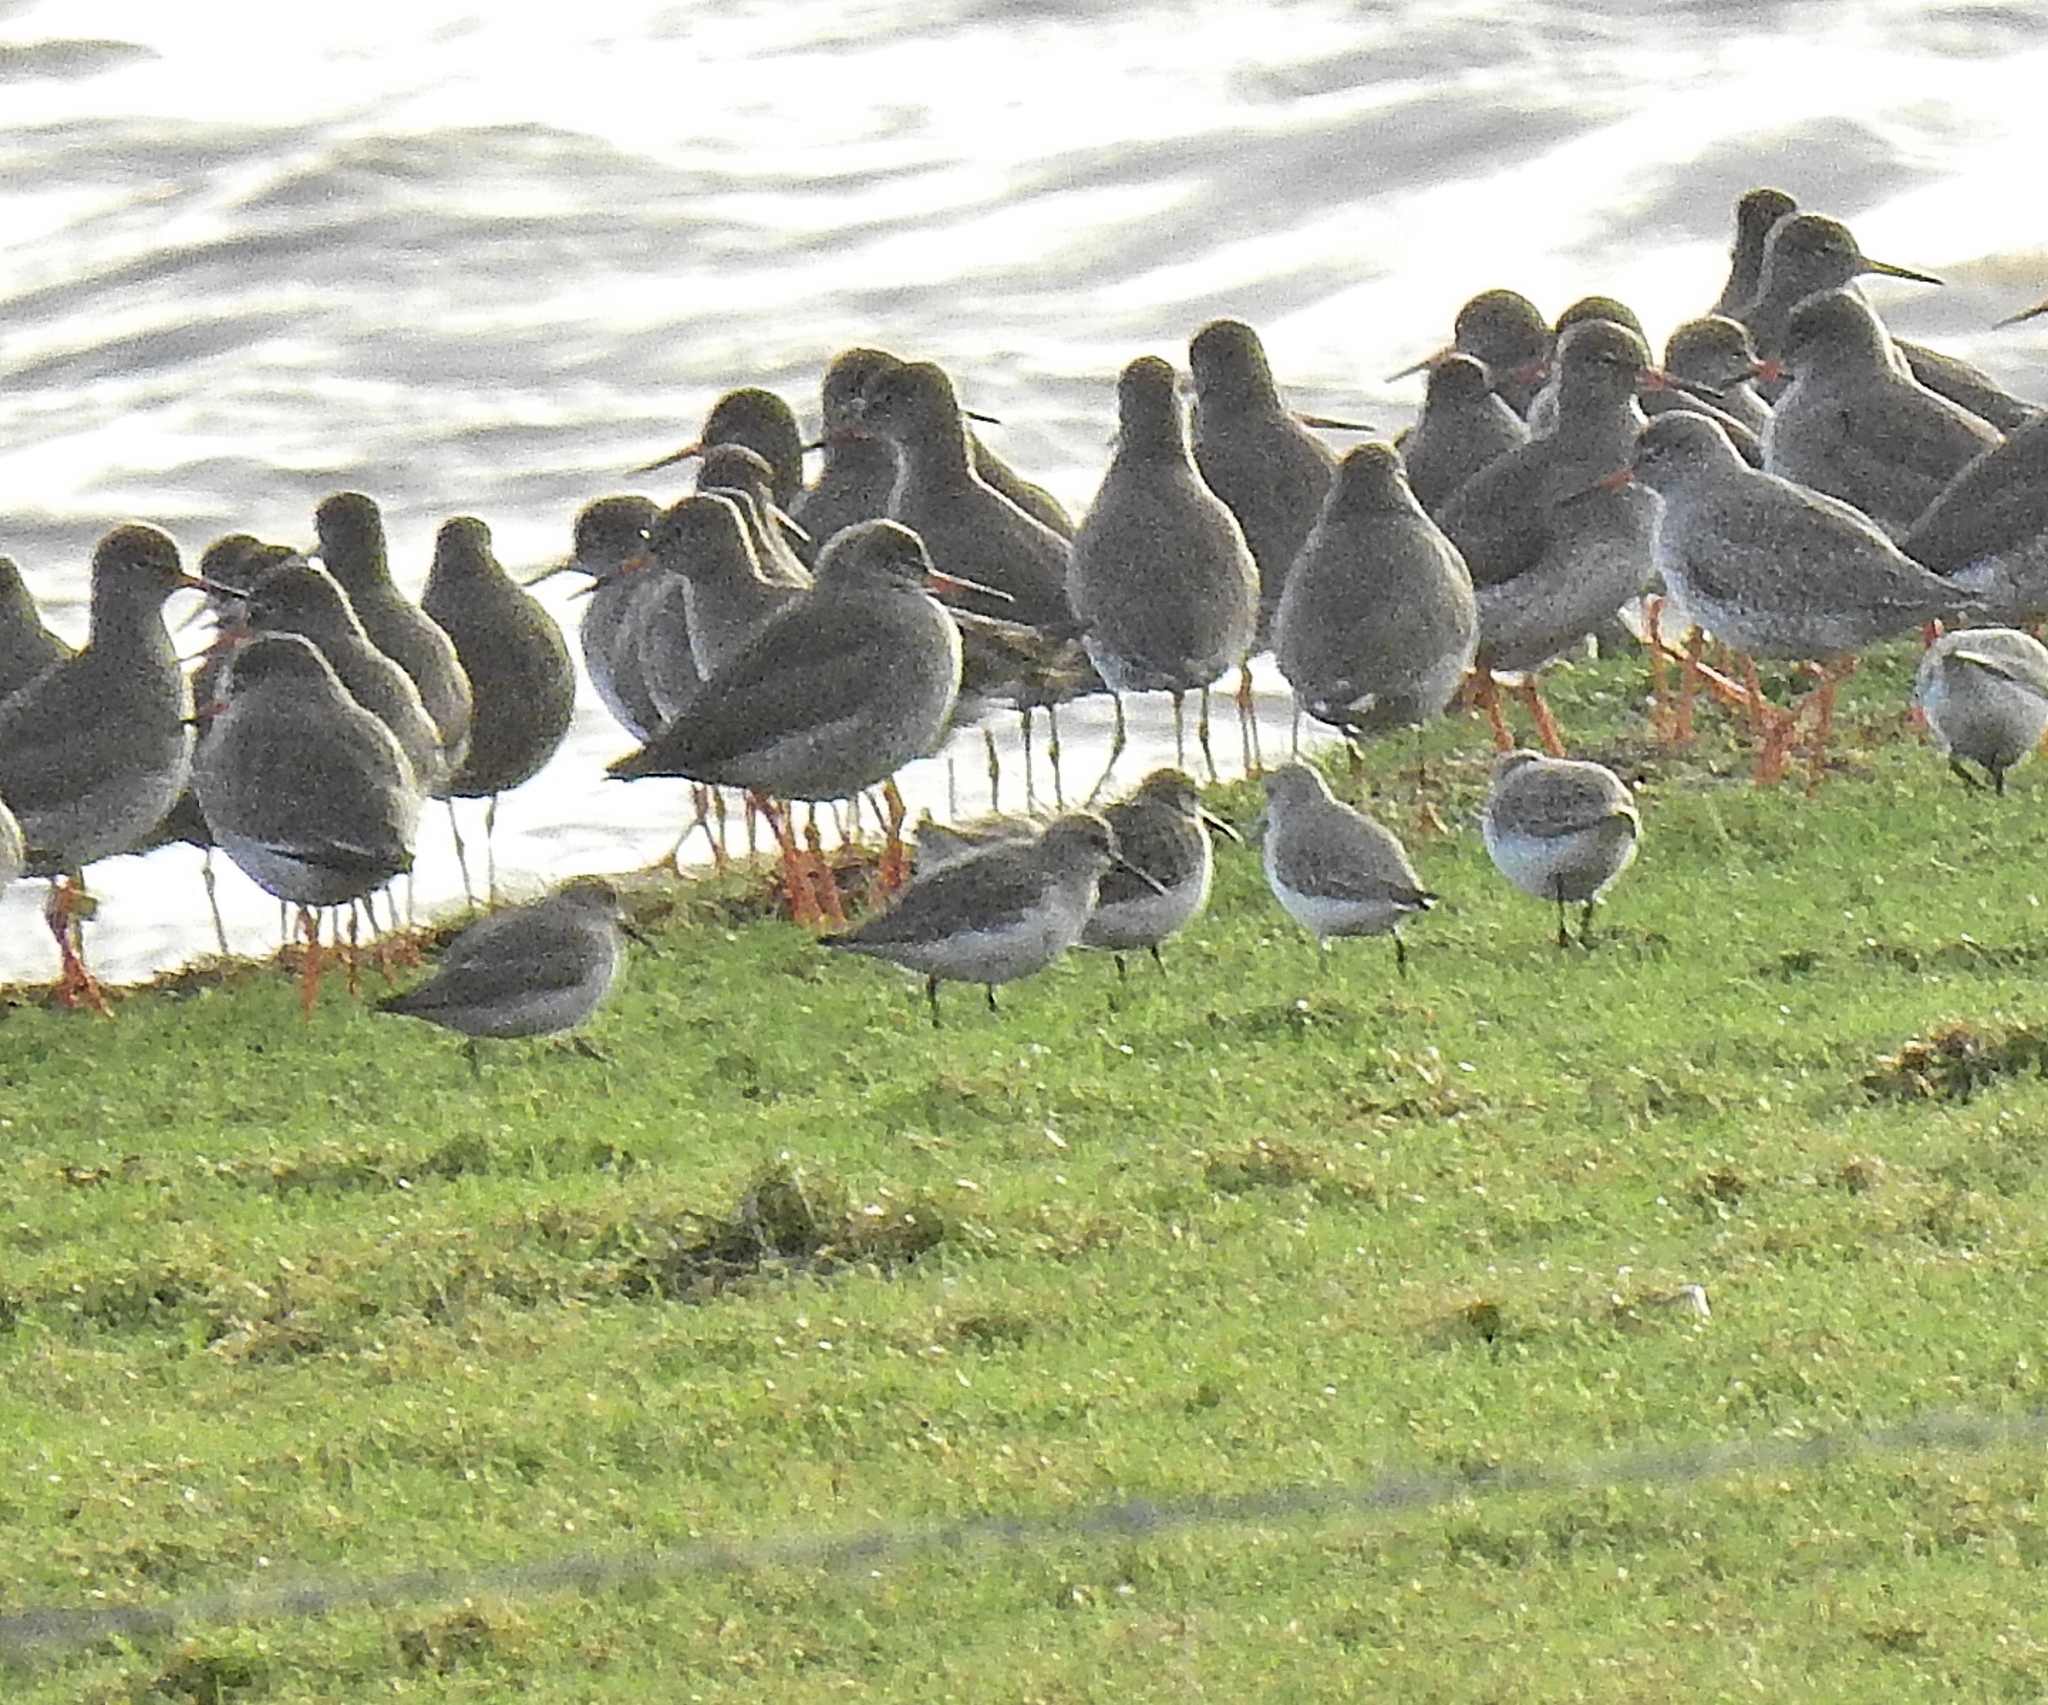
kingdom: Animalia
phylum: Chordata
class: Aves
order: Charadriiformes
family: Scolopacidae
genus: Calidris
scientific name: Calidris alpina
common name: Dunlin
